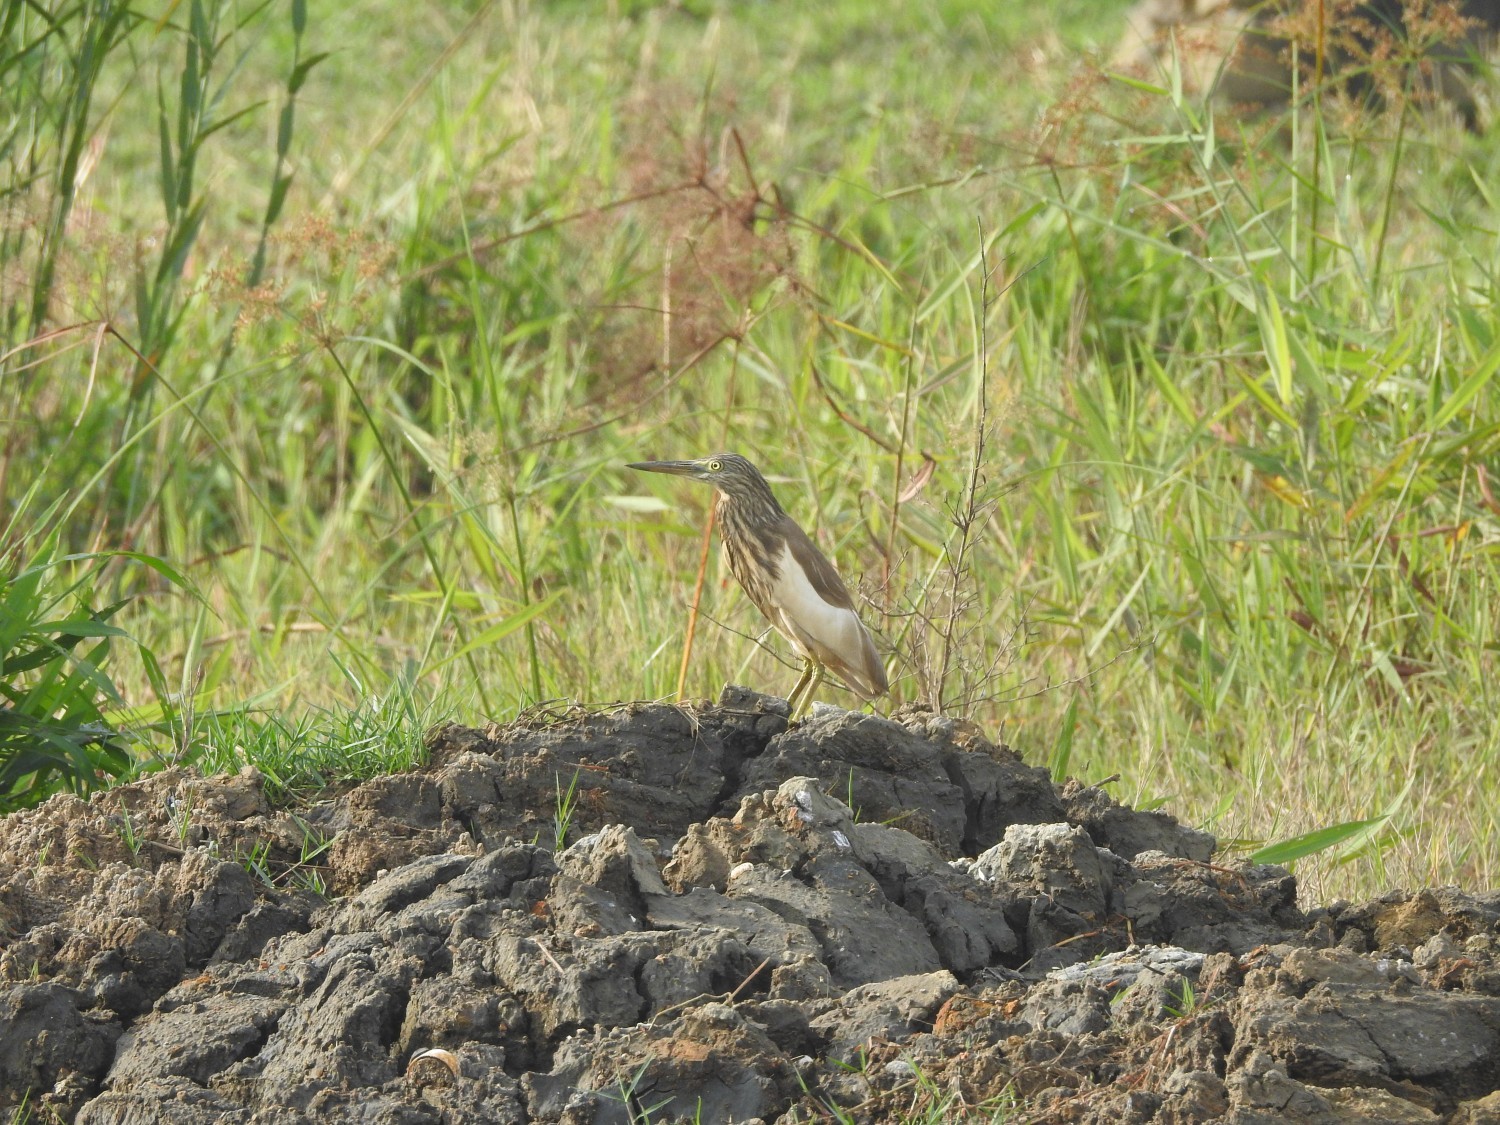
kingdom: Animalia
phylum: Chordata
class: Aves
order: Pelecaniformes
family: Ardeidae
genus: Ardeola
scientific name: Ardeola grayii
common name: Indian pond heron
